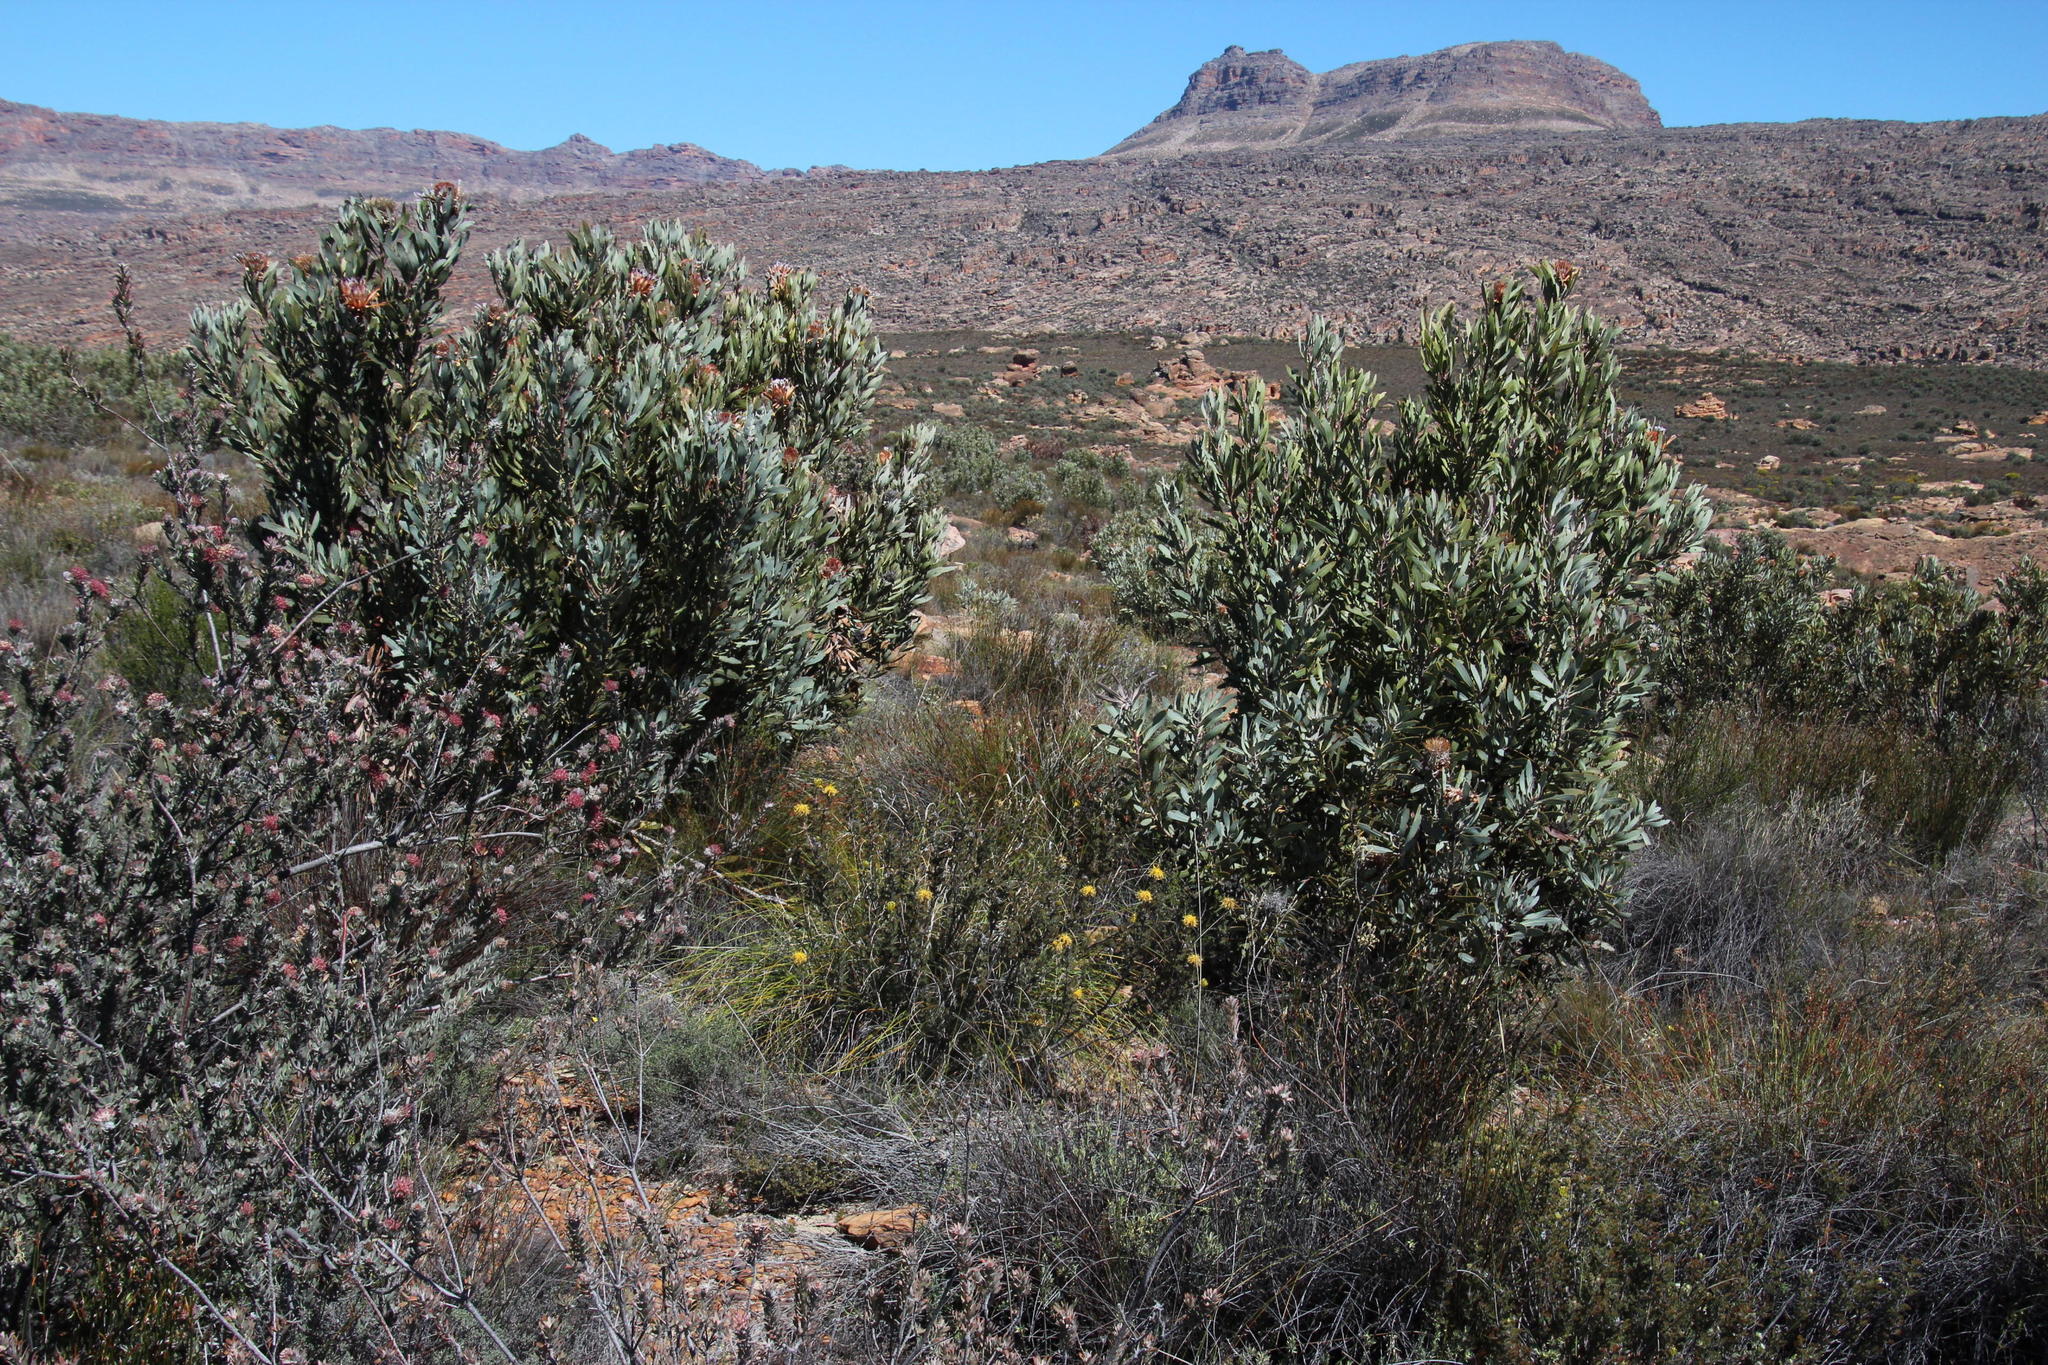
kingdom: Plantae
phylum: Tracheophyta
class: Magnoliopsida
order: Proteales
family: Proteaceae
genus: Protea
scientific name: Protea laurifolia
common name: Grey-leaf sugarbsh
